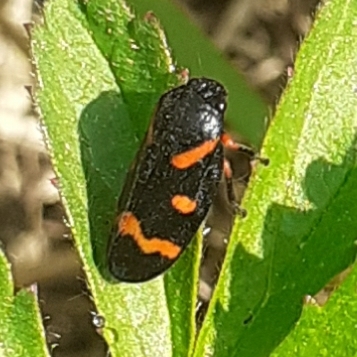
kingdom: Animalia
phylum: Arthropoda
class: Insecta
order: Hemiptera
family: Cercopidae
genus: Cercopis
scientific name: Cercopis intermedia
